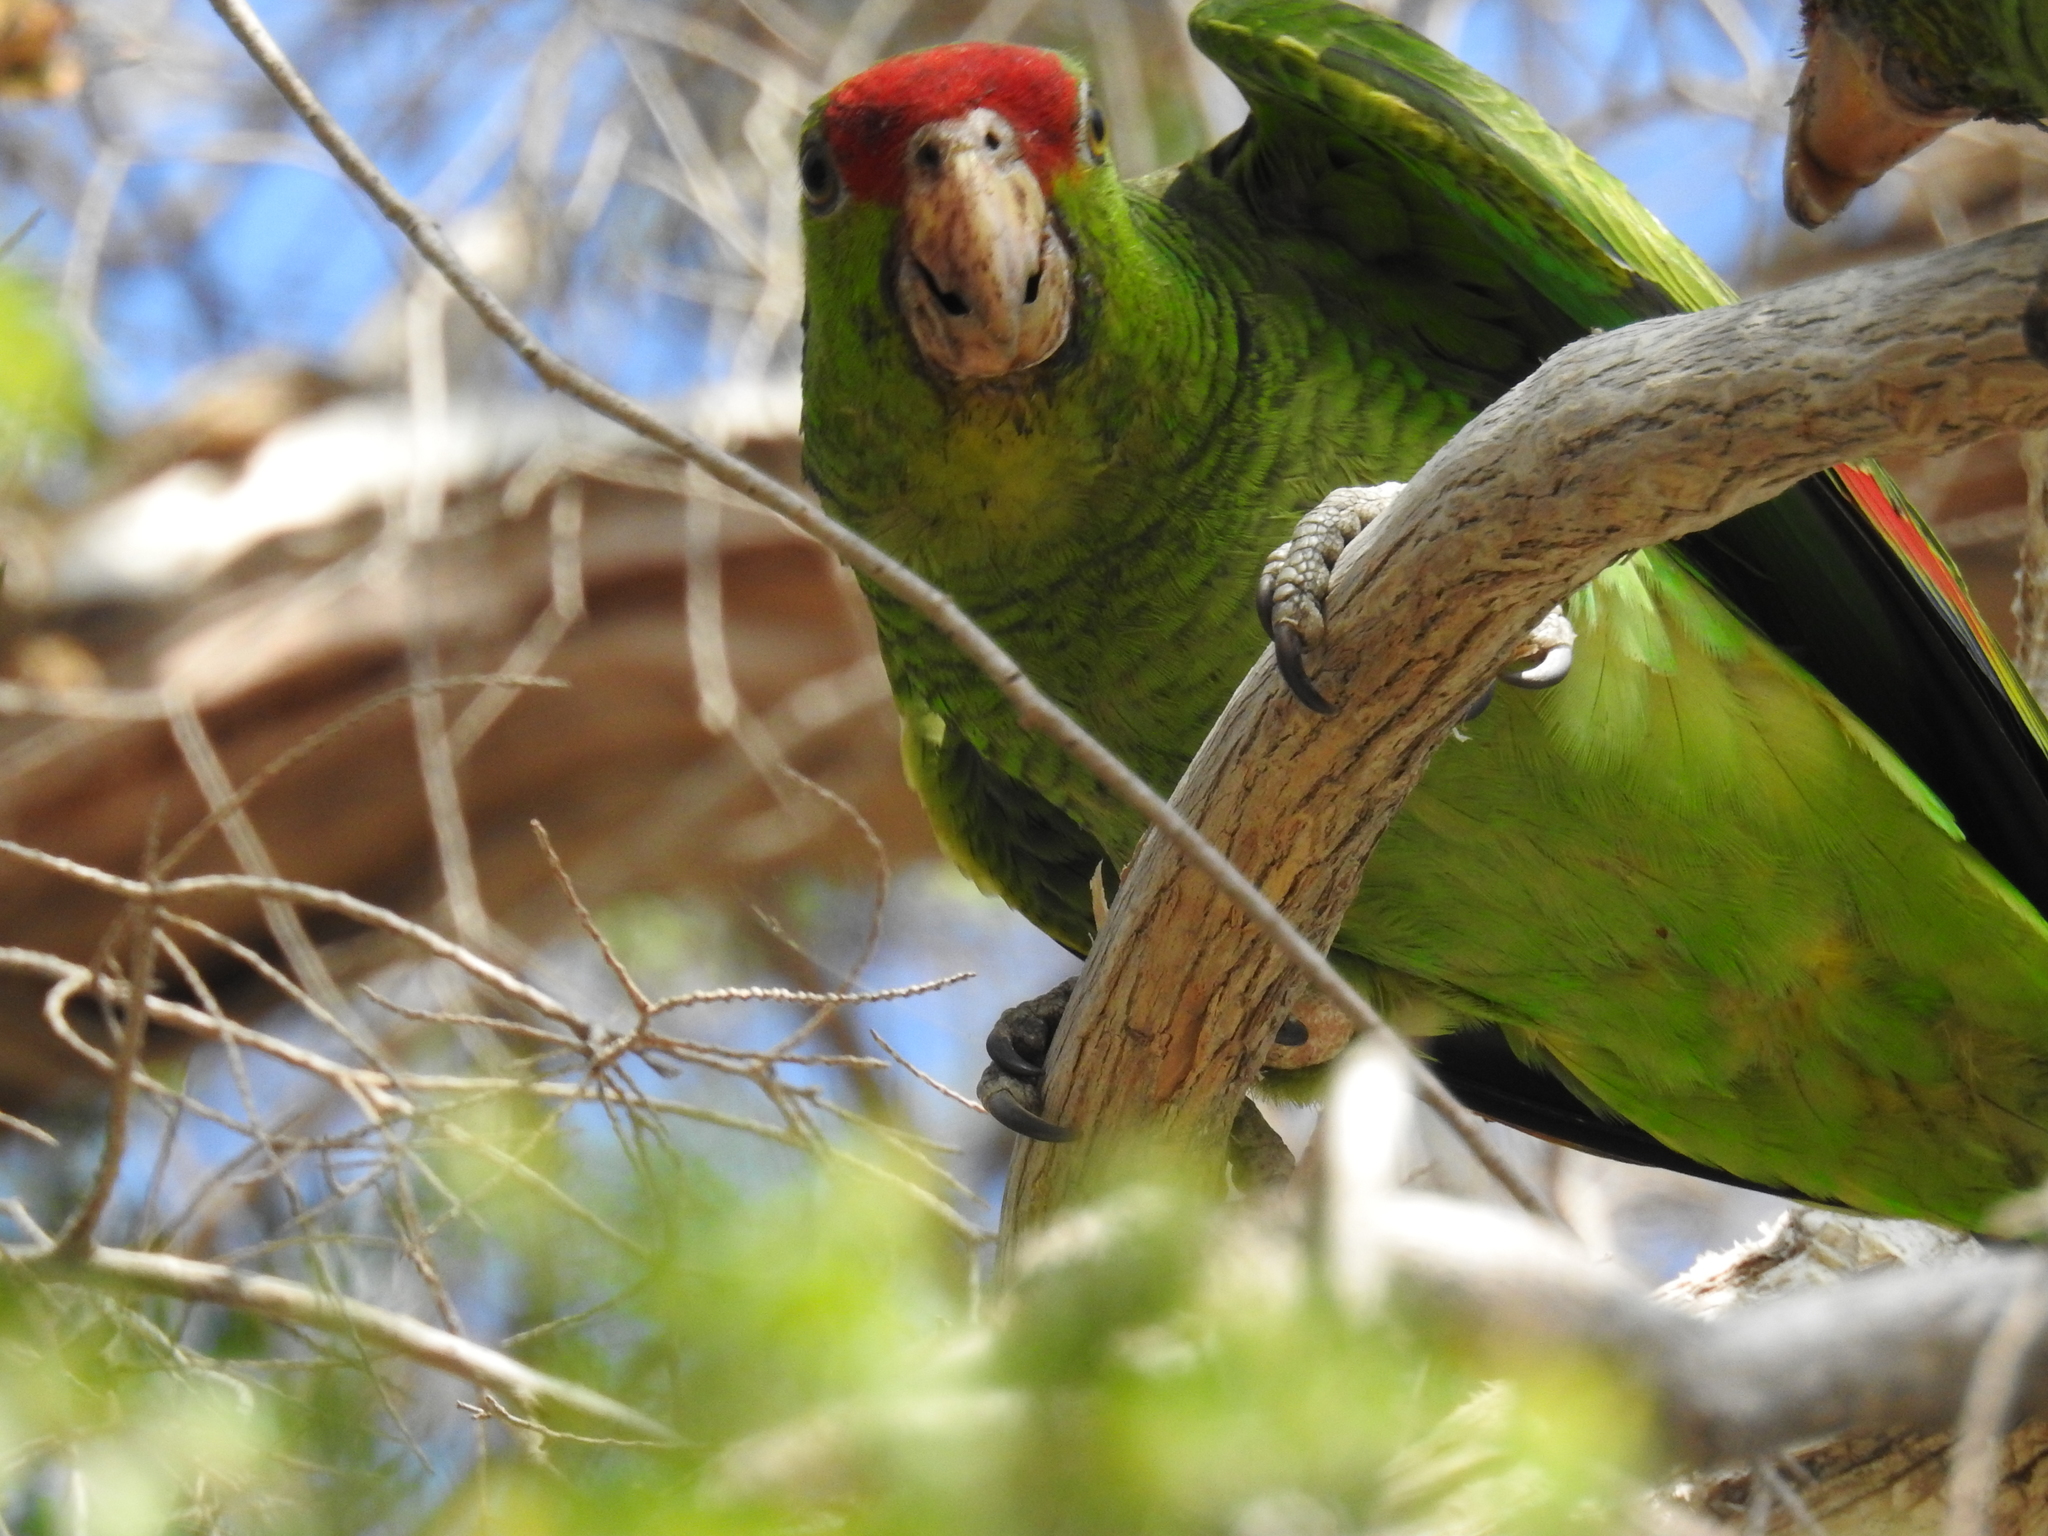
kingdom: Animalia
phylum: Chordata
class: Aves
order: Psittaciformes
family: Psittacidae
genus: Amazona
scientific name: Amazona viridigenalis
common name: Red-crowned amazon
